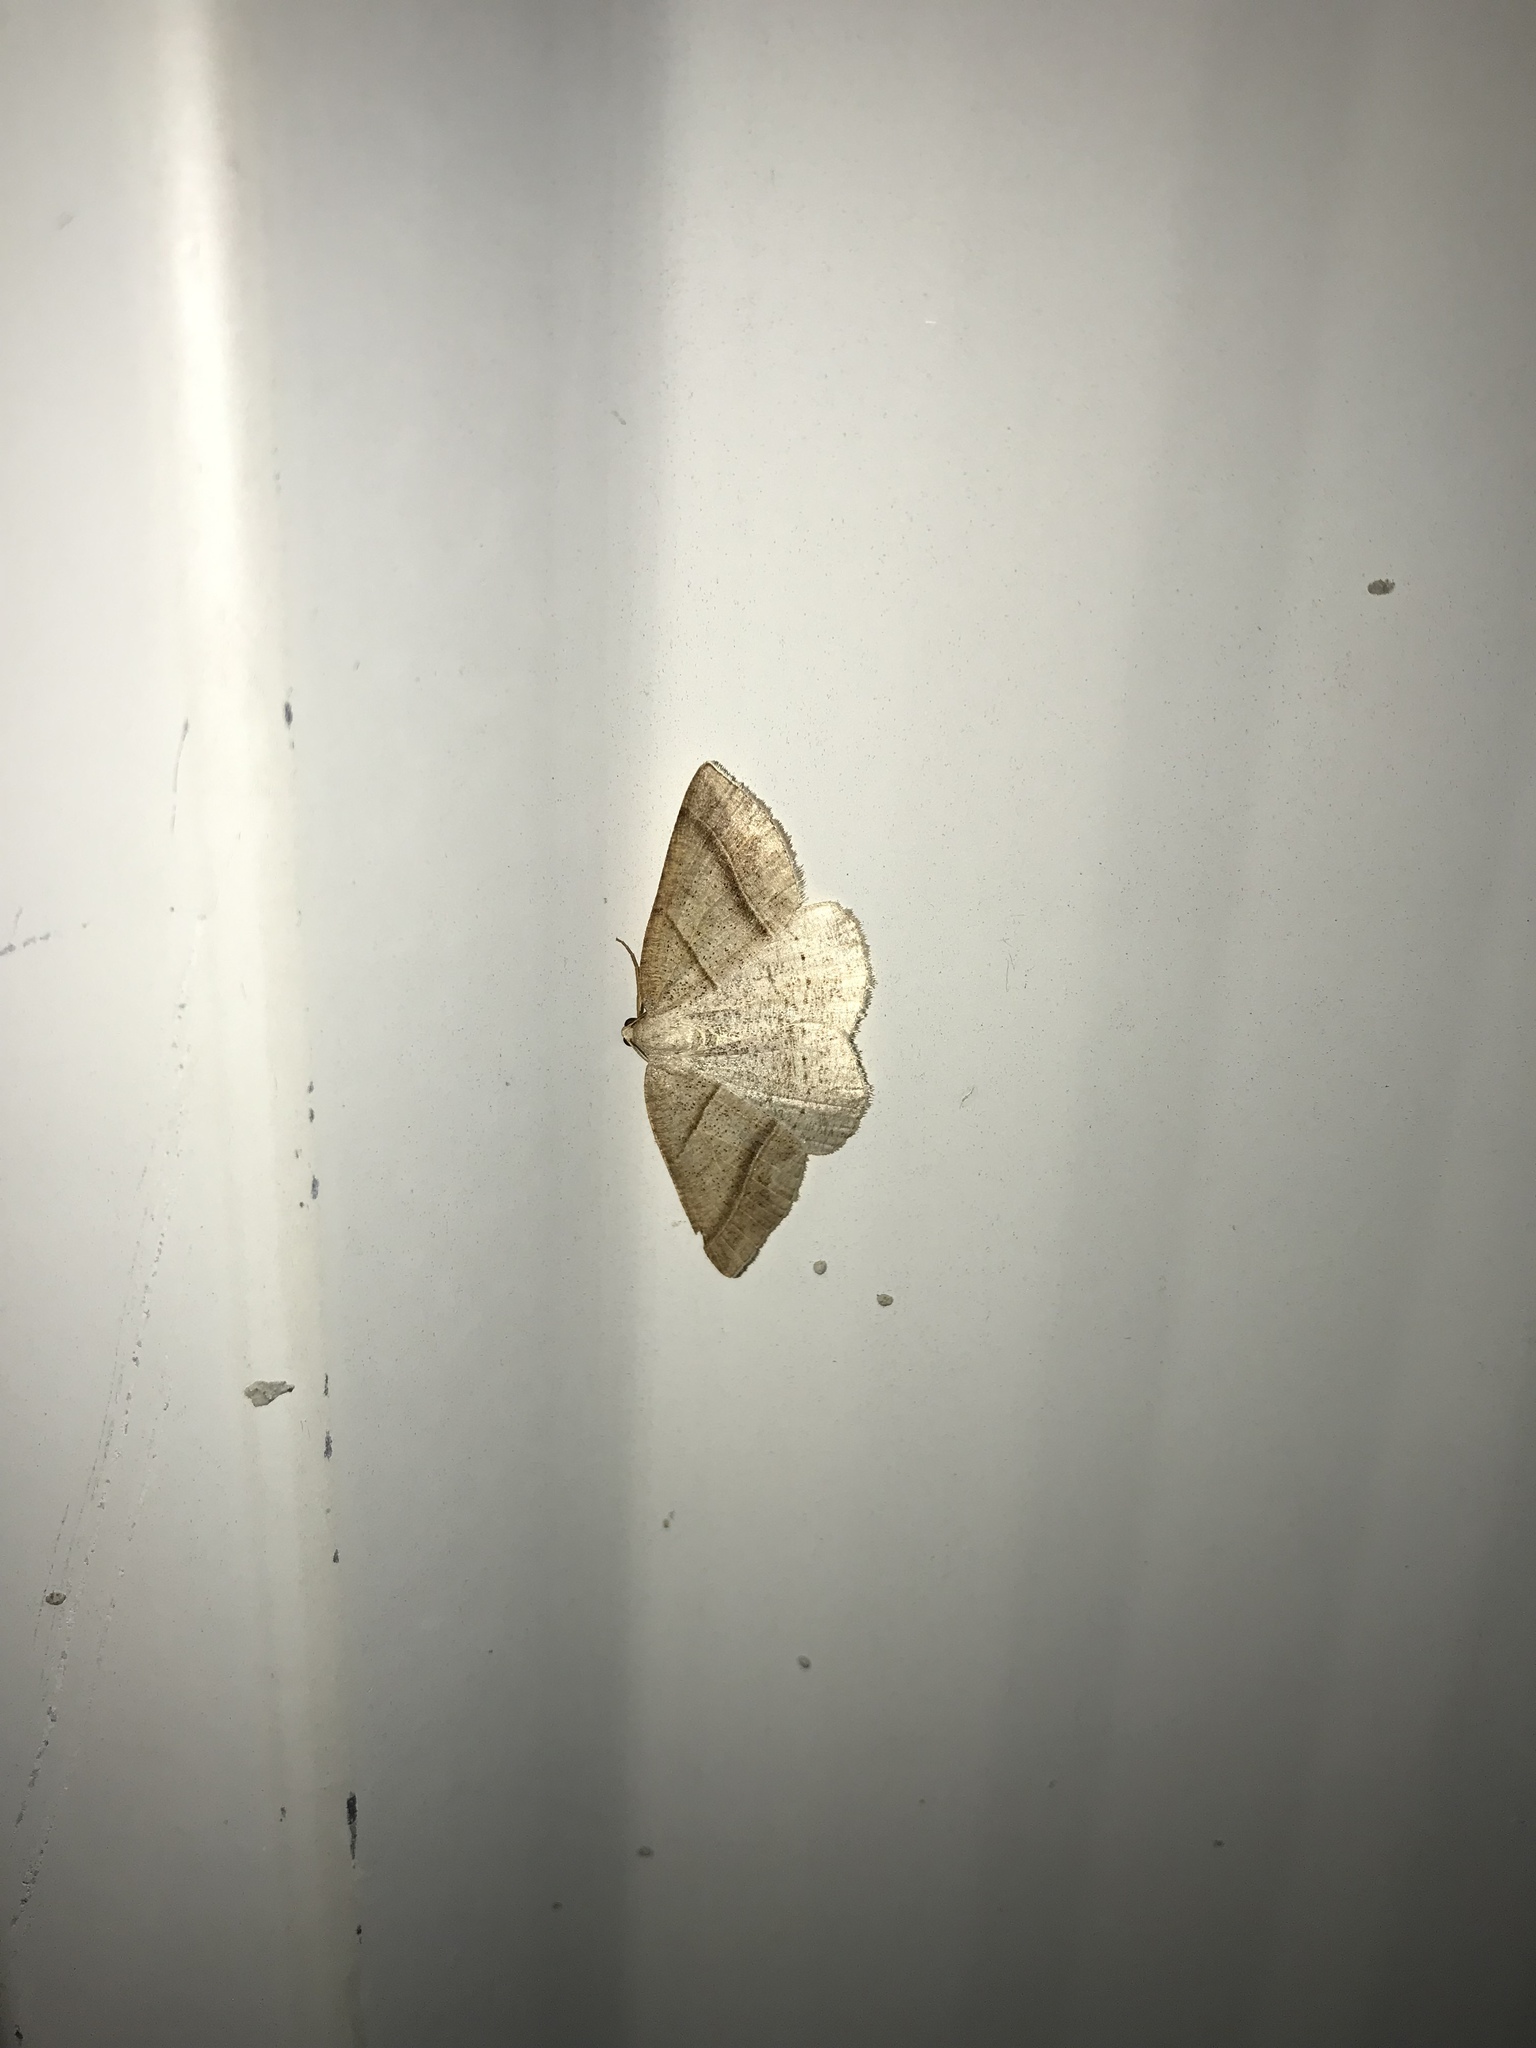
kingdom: Animalia
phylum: Arthropoda
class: Insecta
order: Lepidoptera
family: Pterophoridae
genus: Pterophorus
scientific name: Pterophorus Petrophora subaequaria
